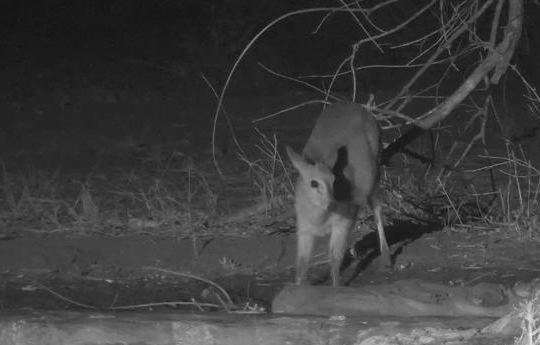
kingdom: Animalia
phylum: Chordata
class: Mammalia
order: Artiodactyla
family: Bovidae
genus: Sylvicapra
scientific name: Sylvicapra grimmia
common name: Bush duiker
